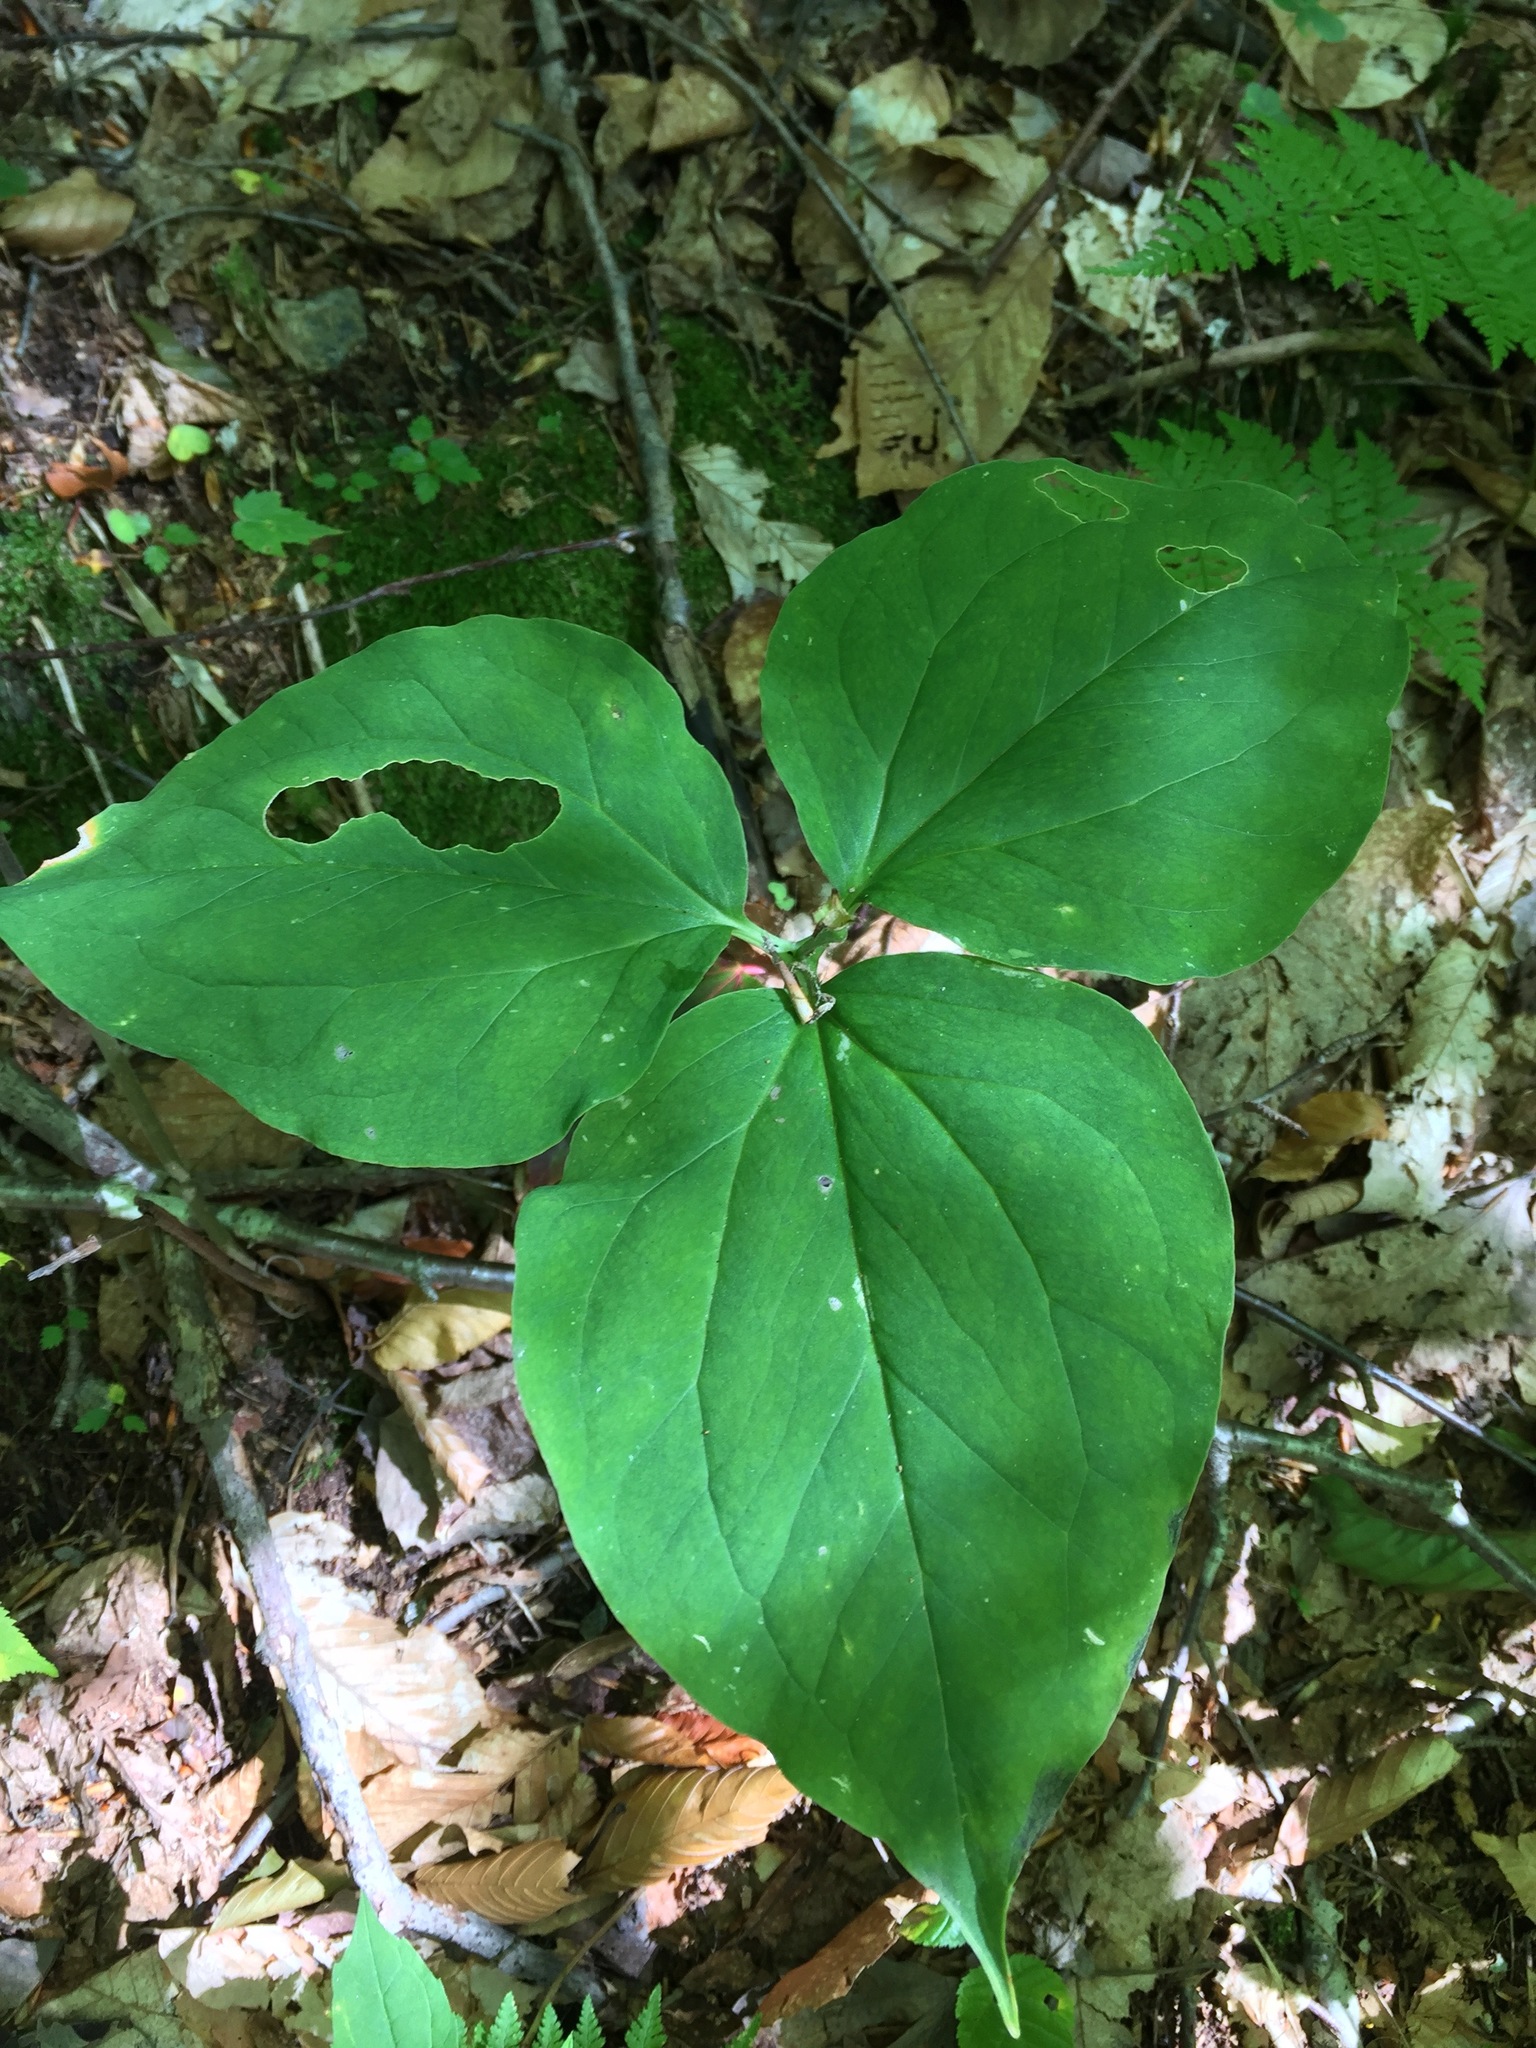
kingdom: Plantae
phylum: Tracheophyta
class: Liliopsida
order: Liliales
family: Melanthiaceae
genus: Trillium
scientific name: Trillium undulatum
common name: Paint trillium
